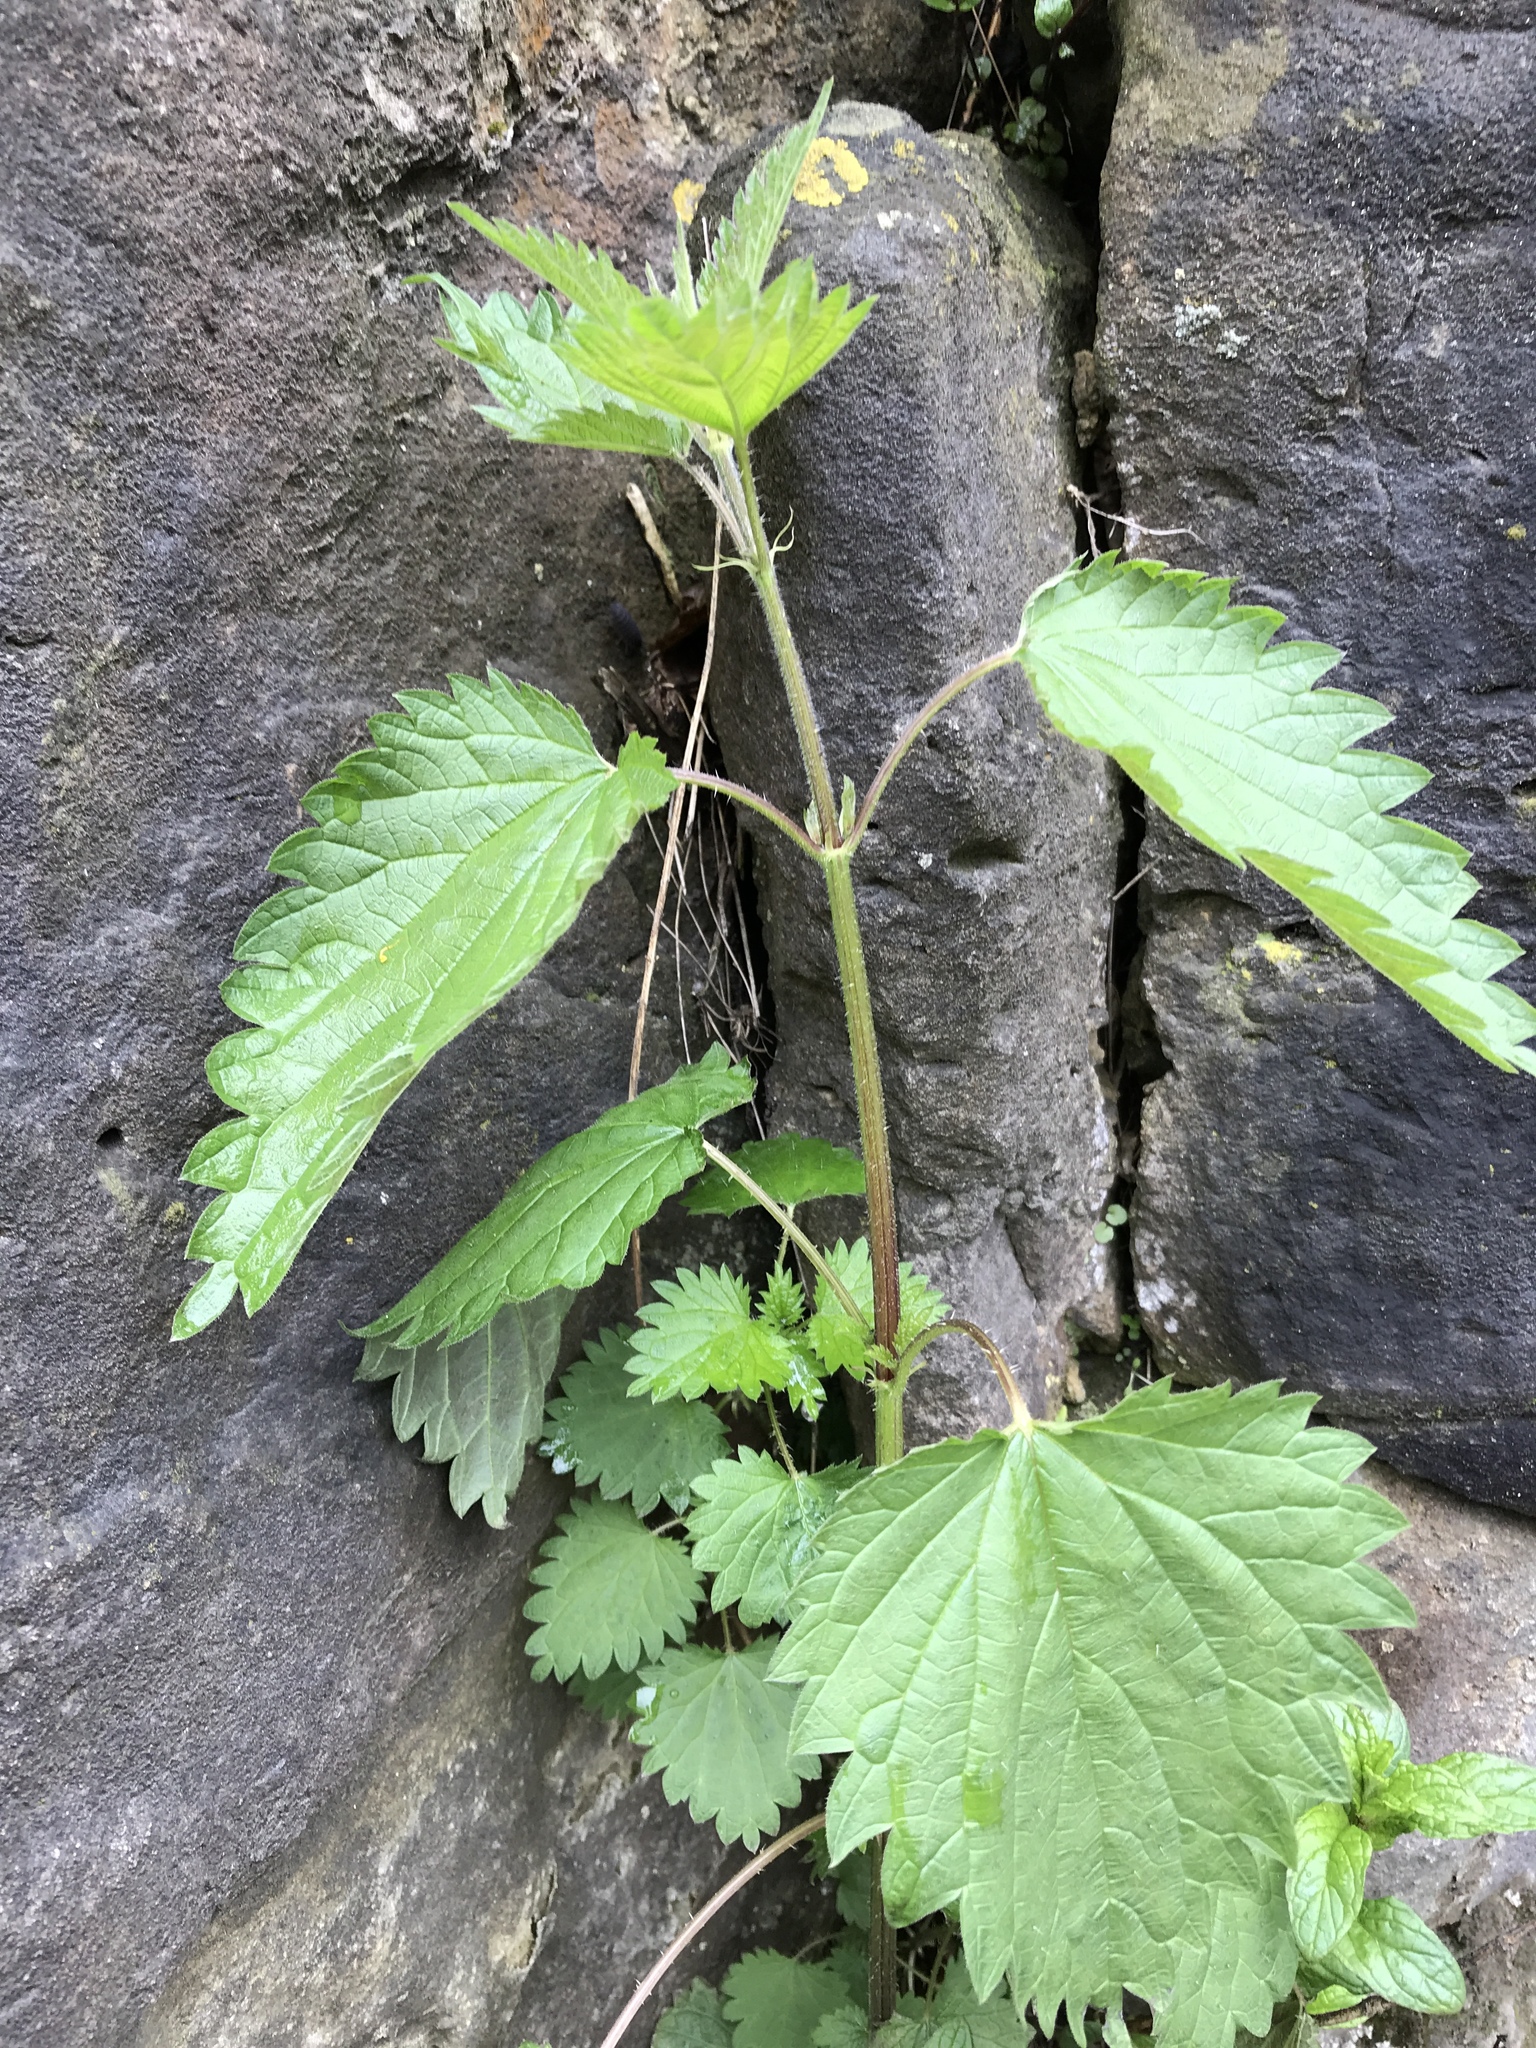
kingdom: Plantae
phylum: Tracheophyta
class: Magnoliopsida
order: Rosales
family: Urticaceae
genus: Urtica
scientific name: Urtica dioica
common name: Common nettle
